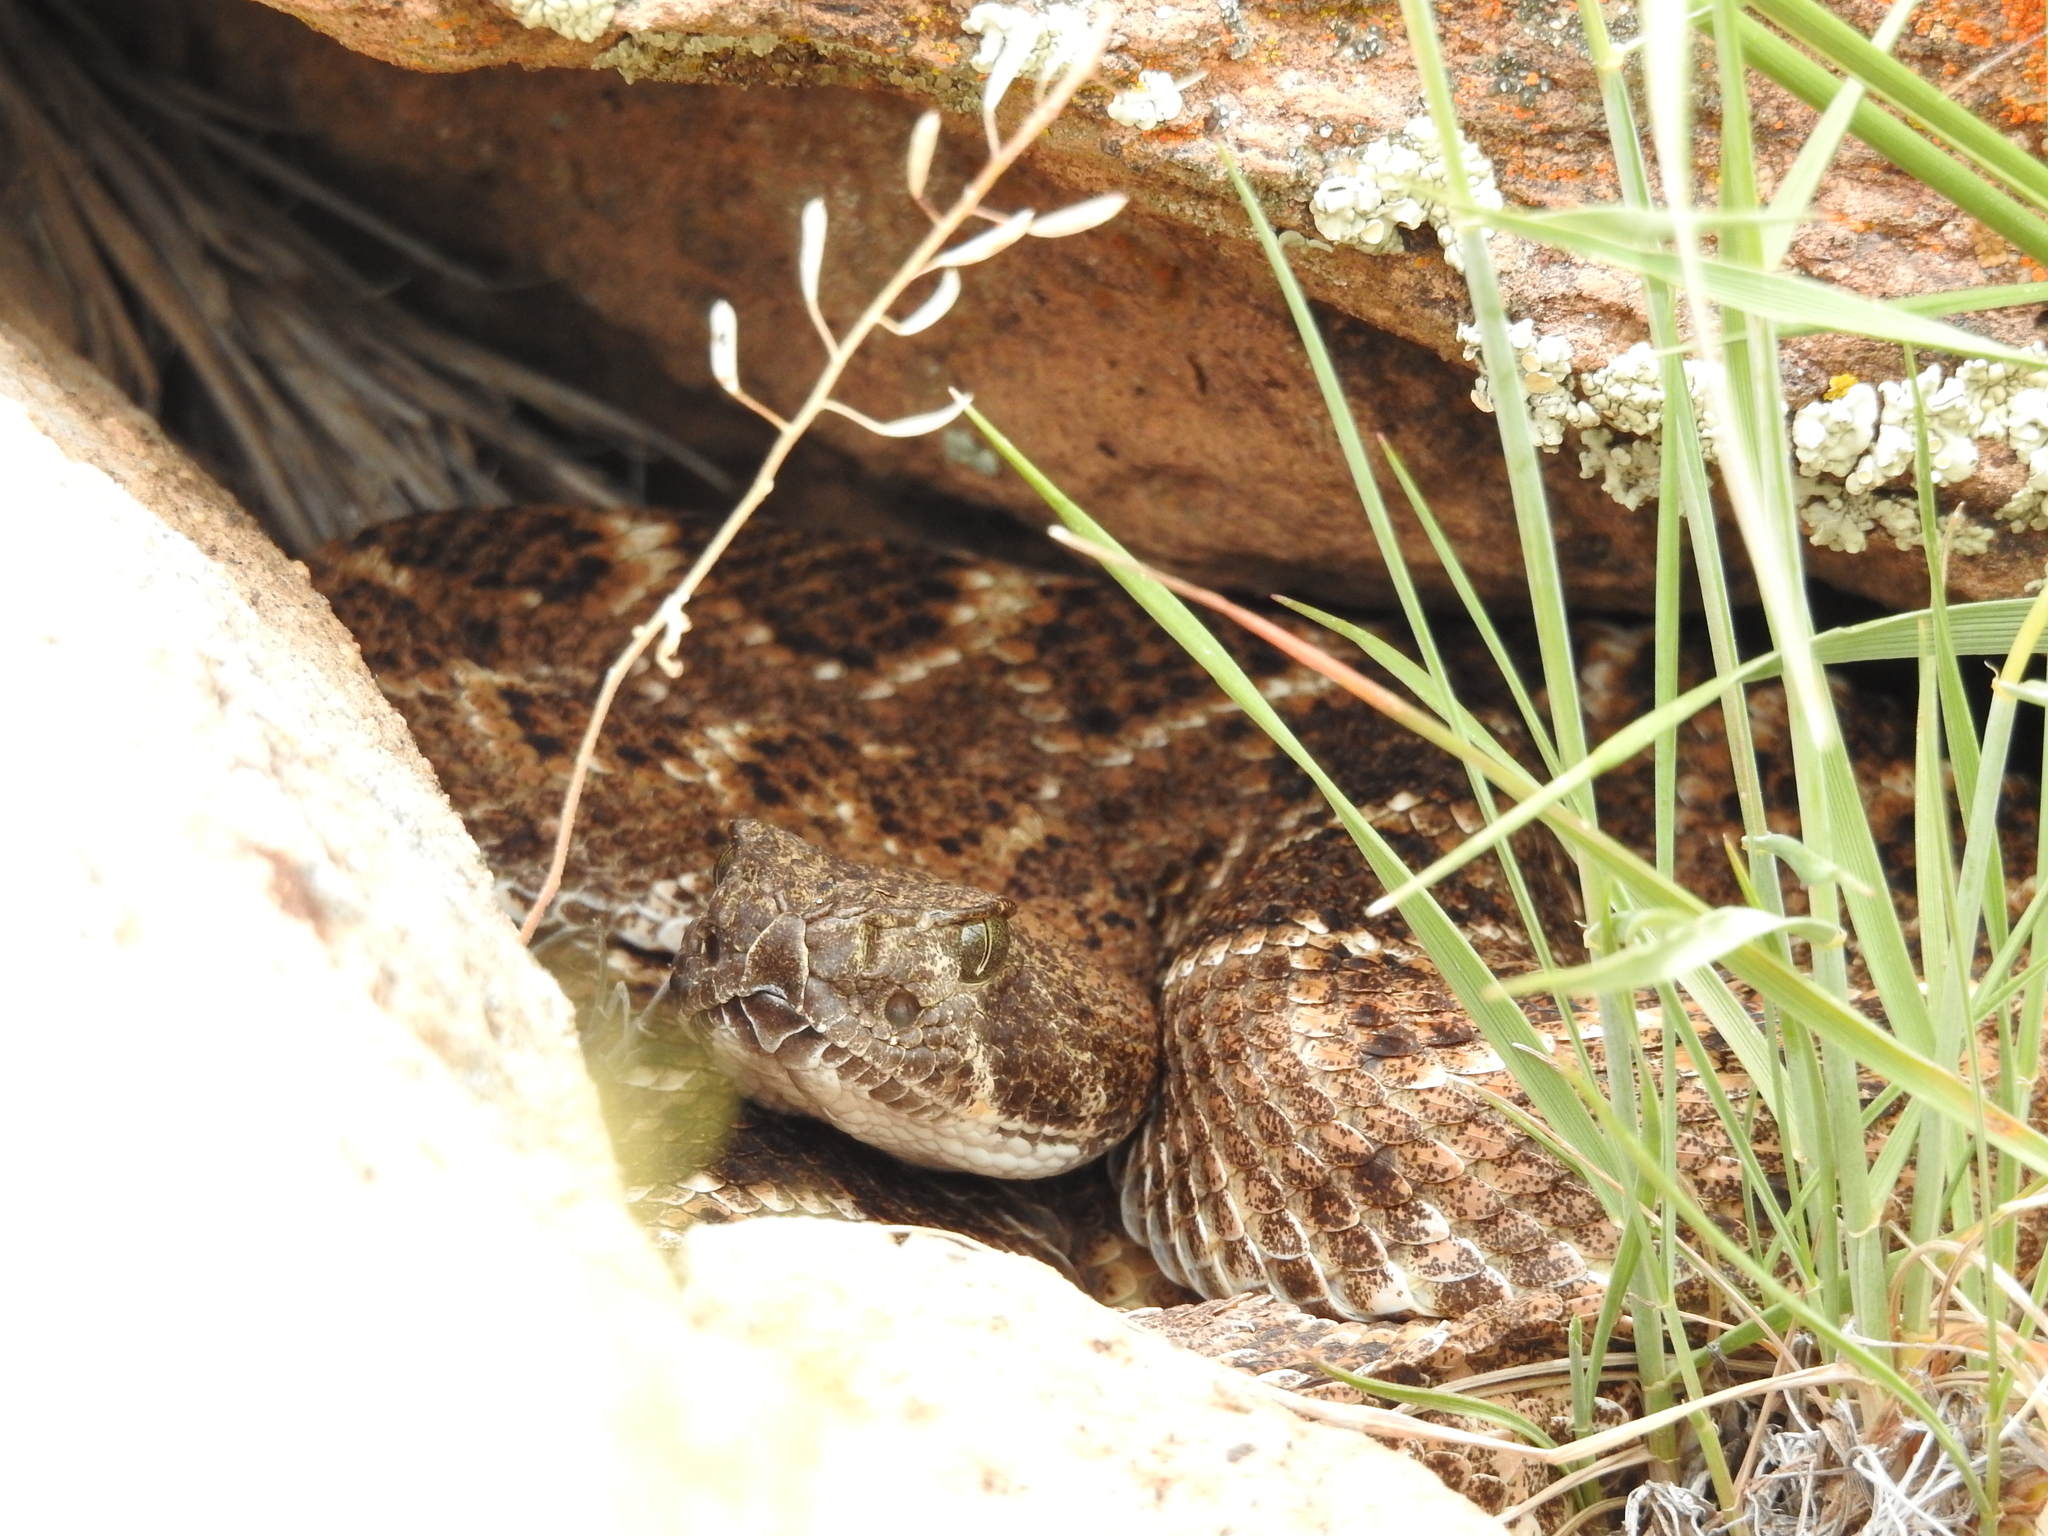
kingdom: Animalia
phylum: Chordata
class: Squamata
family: Viperidae
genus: Crotalus
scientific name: Crotalus atrox
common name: Western diamond-backed rattlesnake
